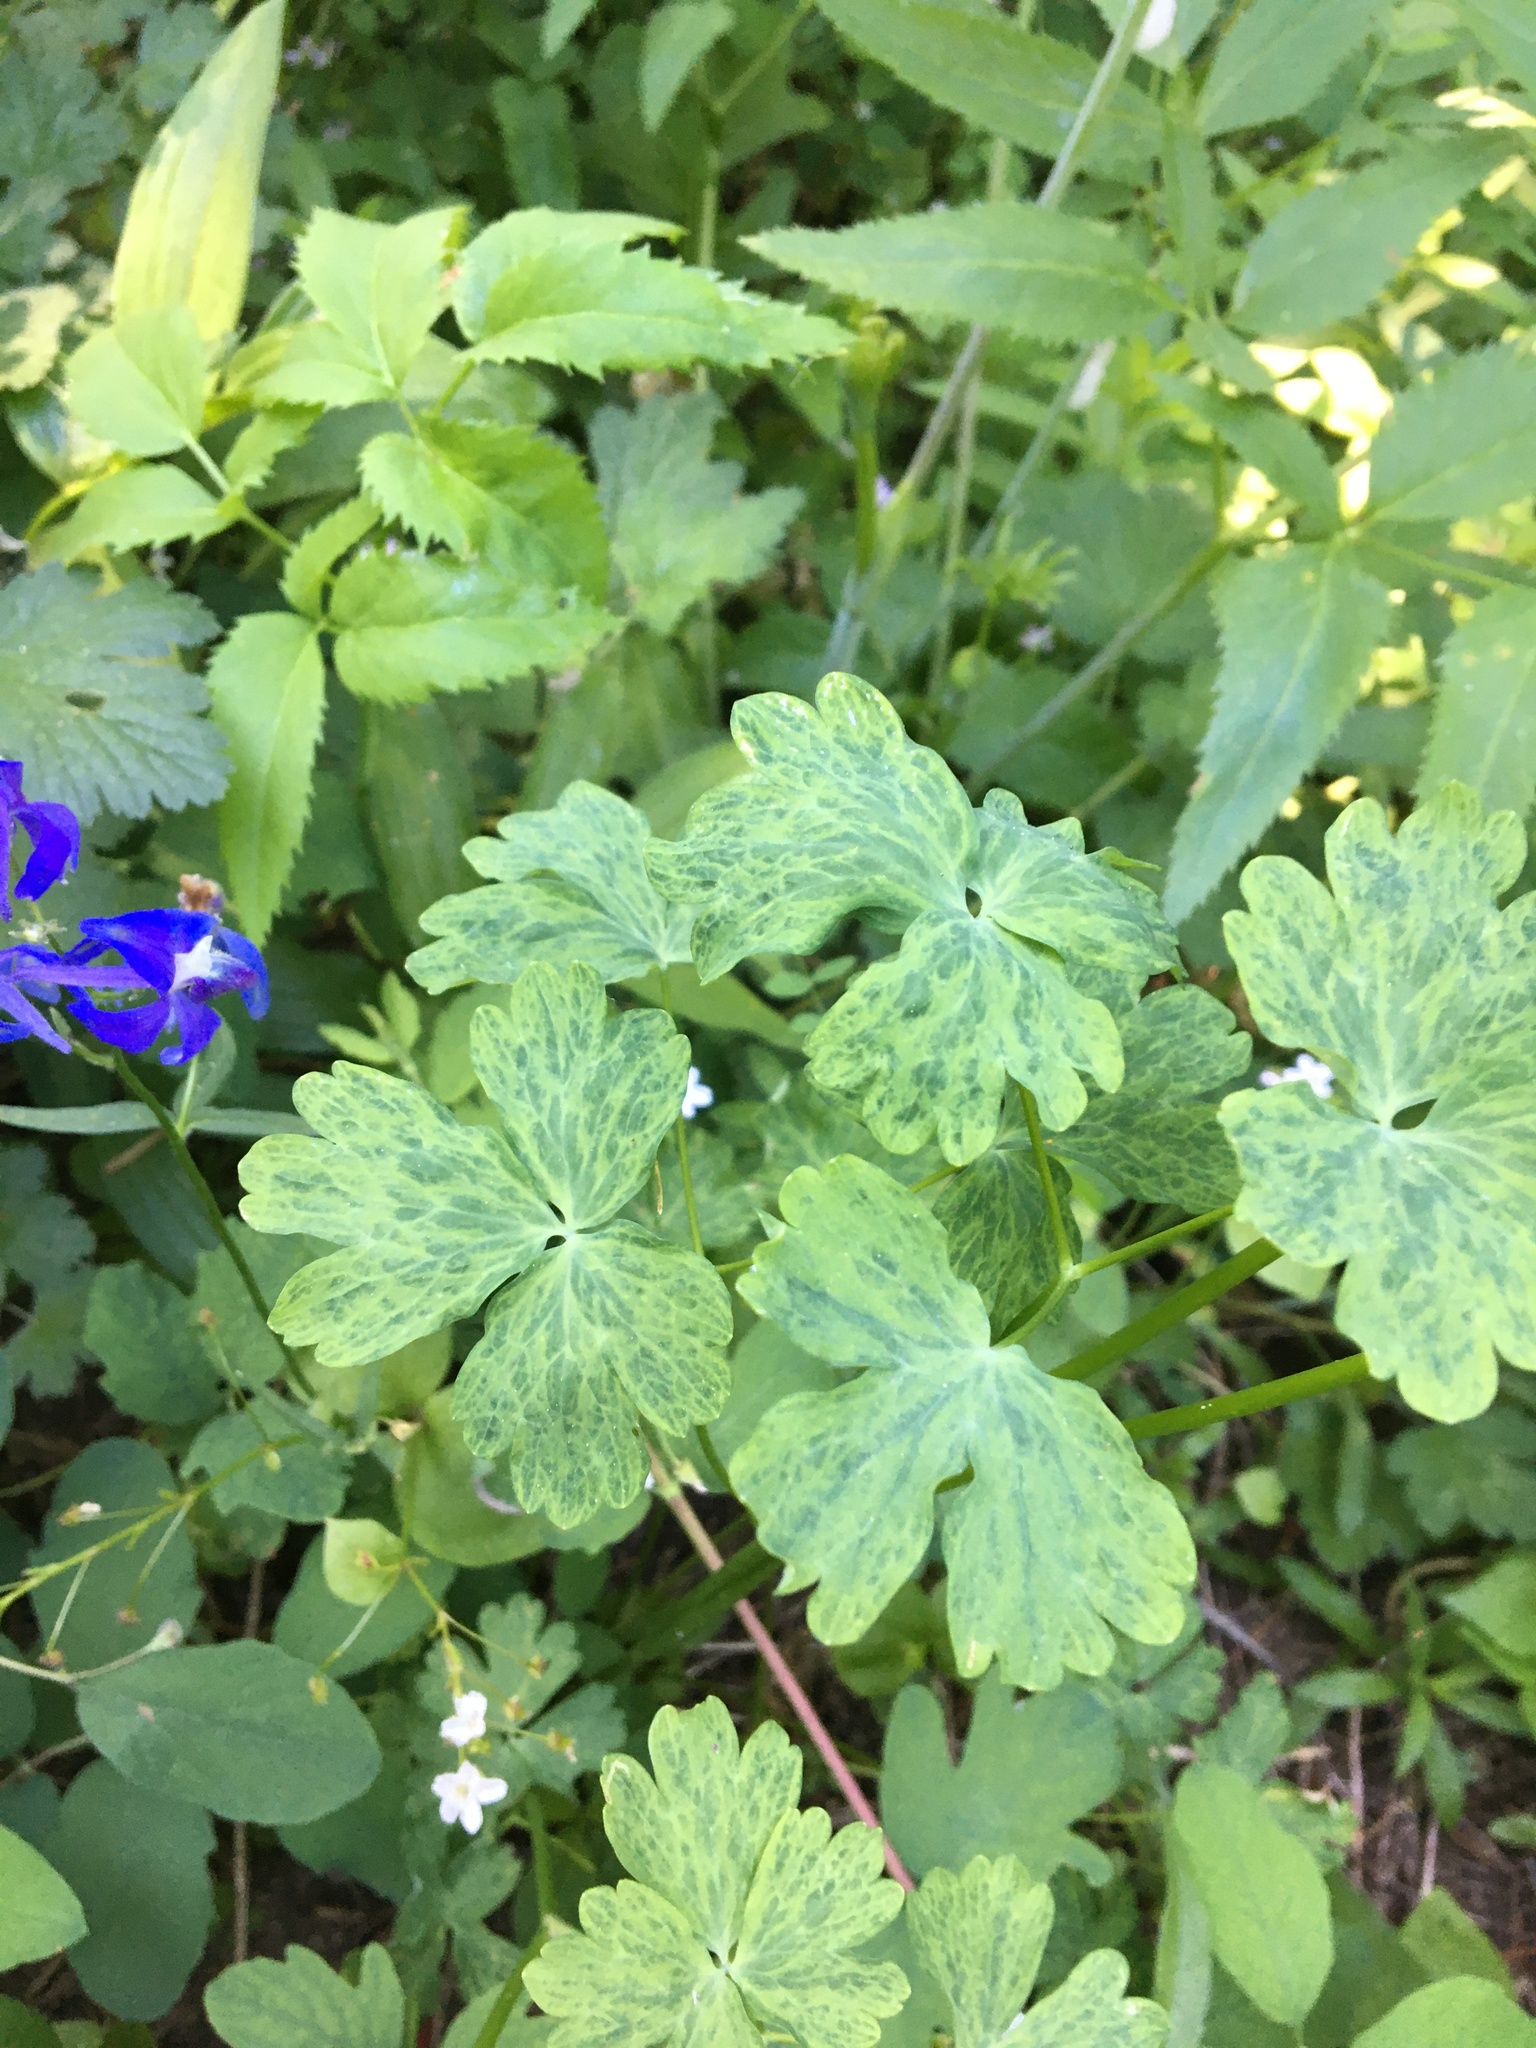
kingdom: Plantae
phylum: Tracheophyta
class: Magnoliopsida
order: Ranunculales
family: Ranunculaceae
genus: Aquilegia
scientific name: Aquilegia formosa
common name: Sitka columbine
